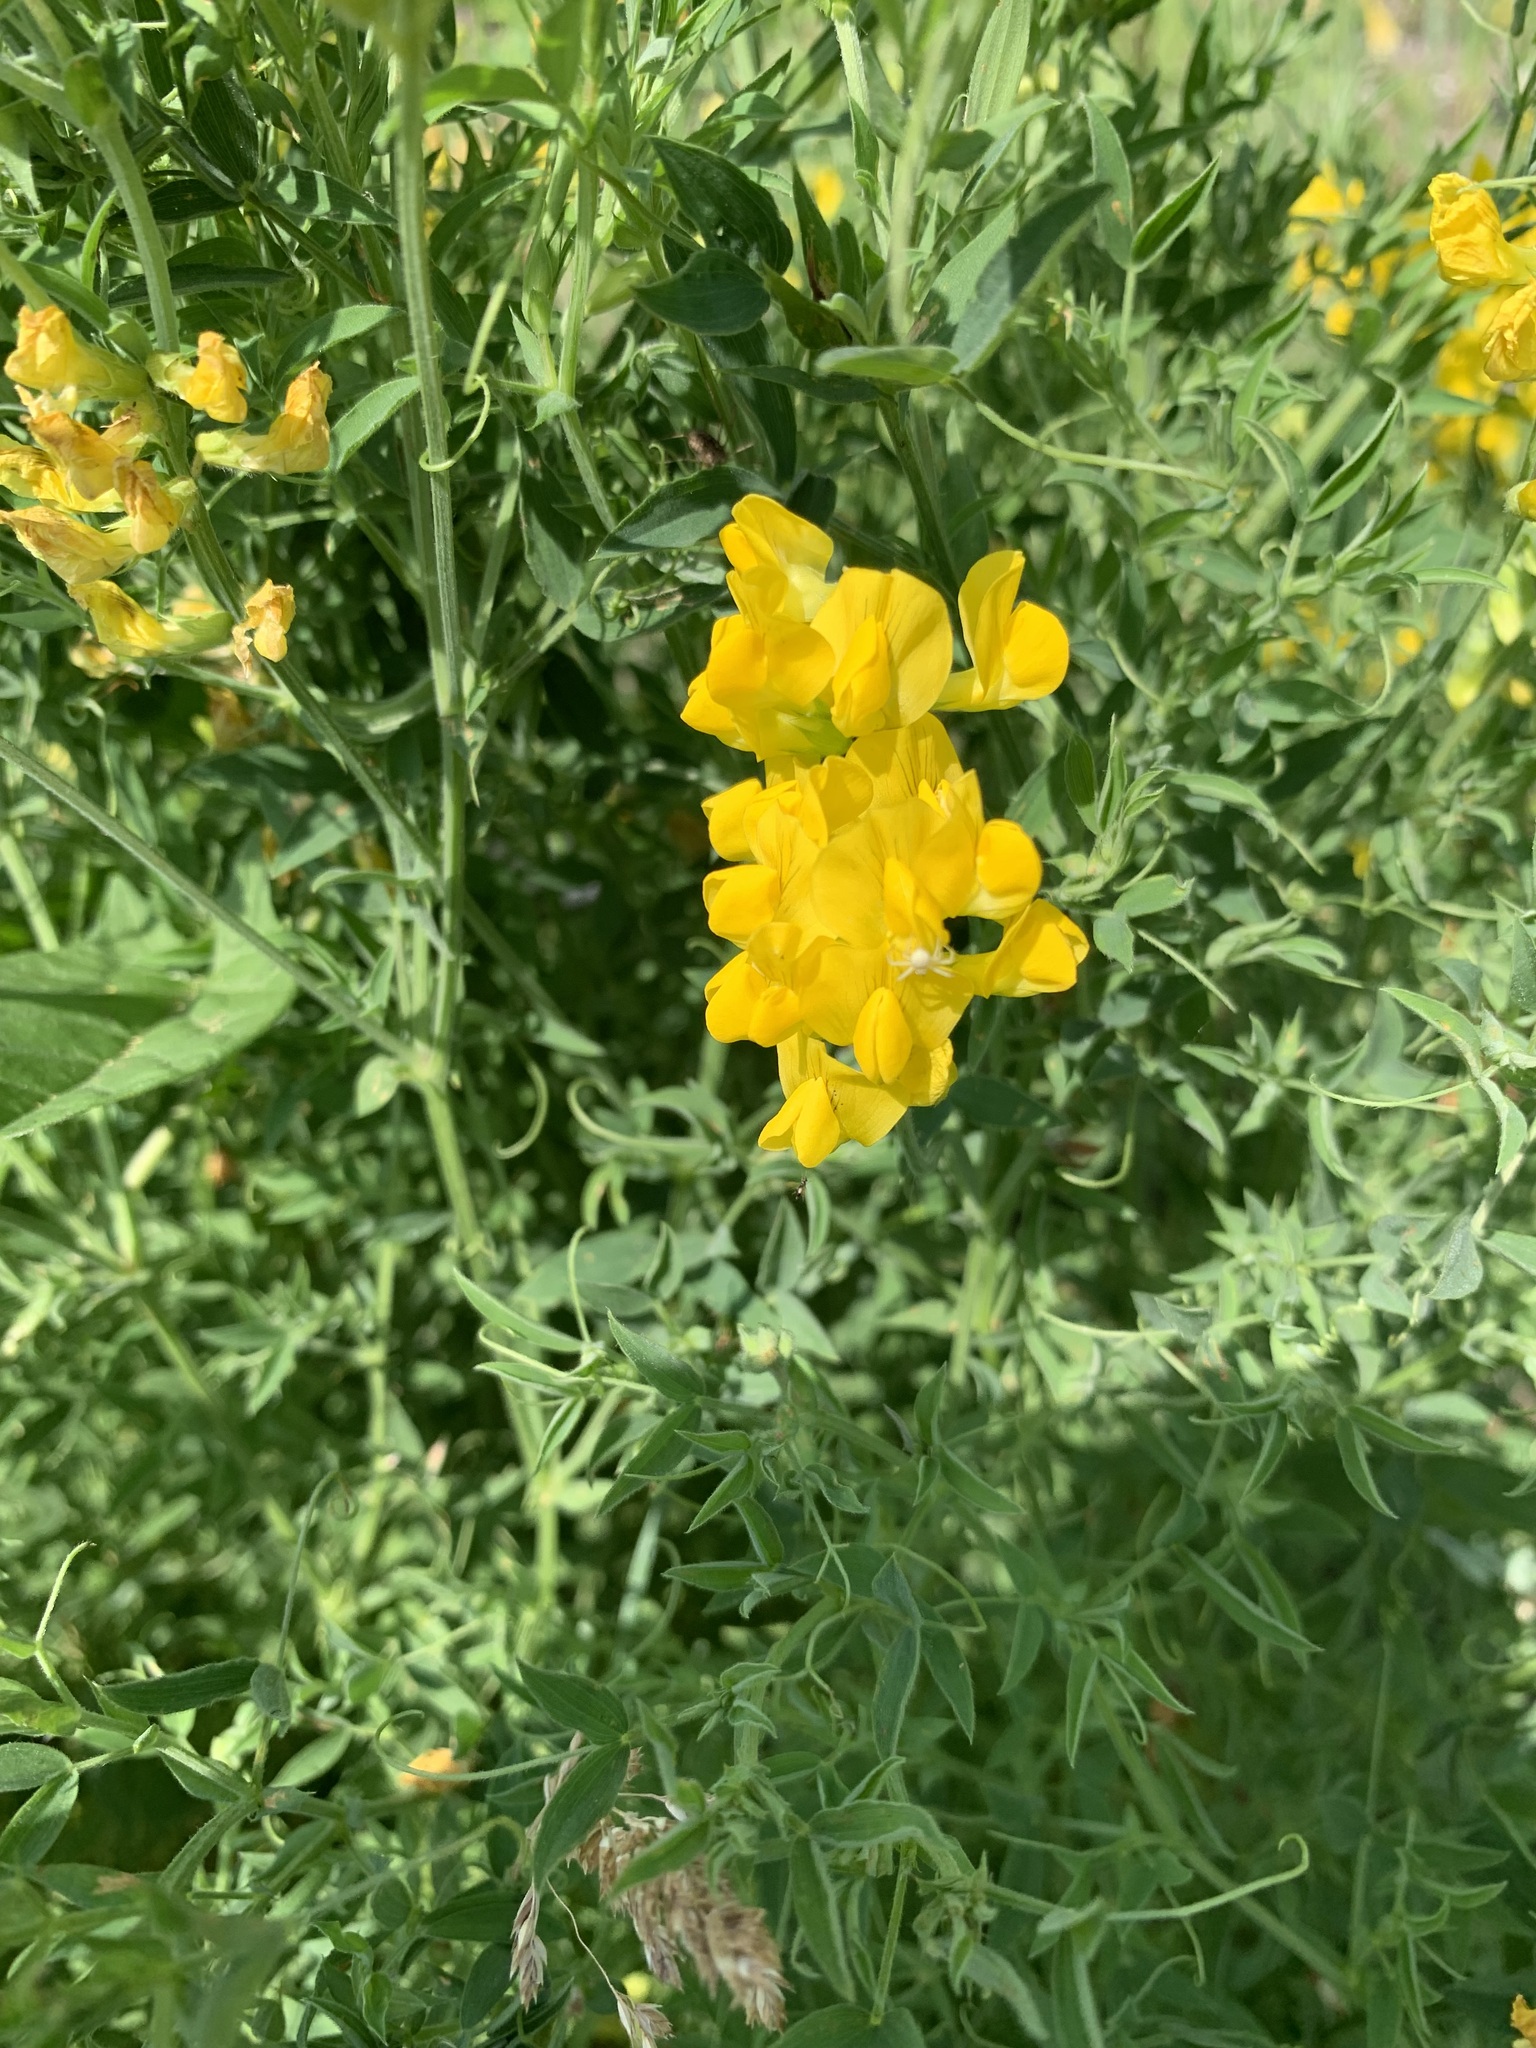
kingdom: Plantae
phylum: Tracheophyta
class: Magnoliopsida
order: Fabales
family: Fabaceae
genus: Lathyrus
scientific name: Lathyrus pratensis
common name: Meadow vetchling
